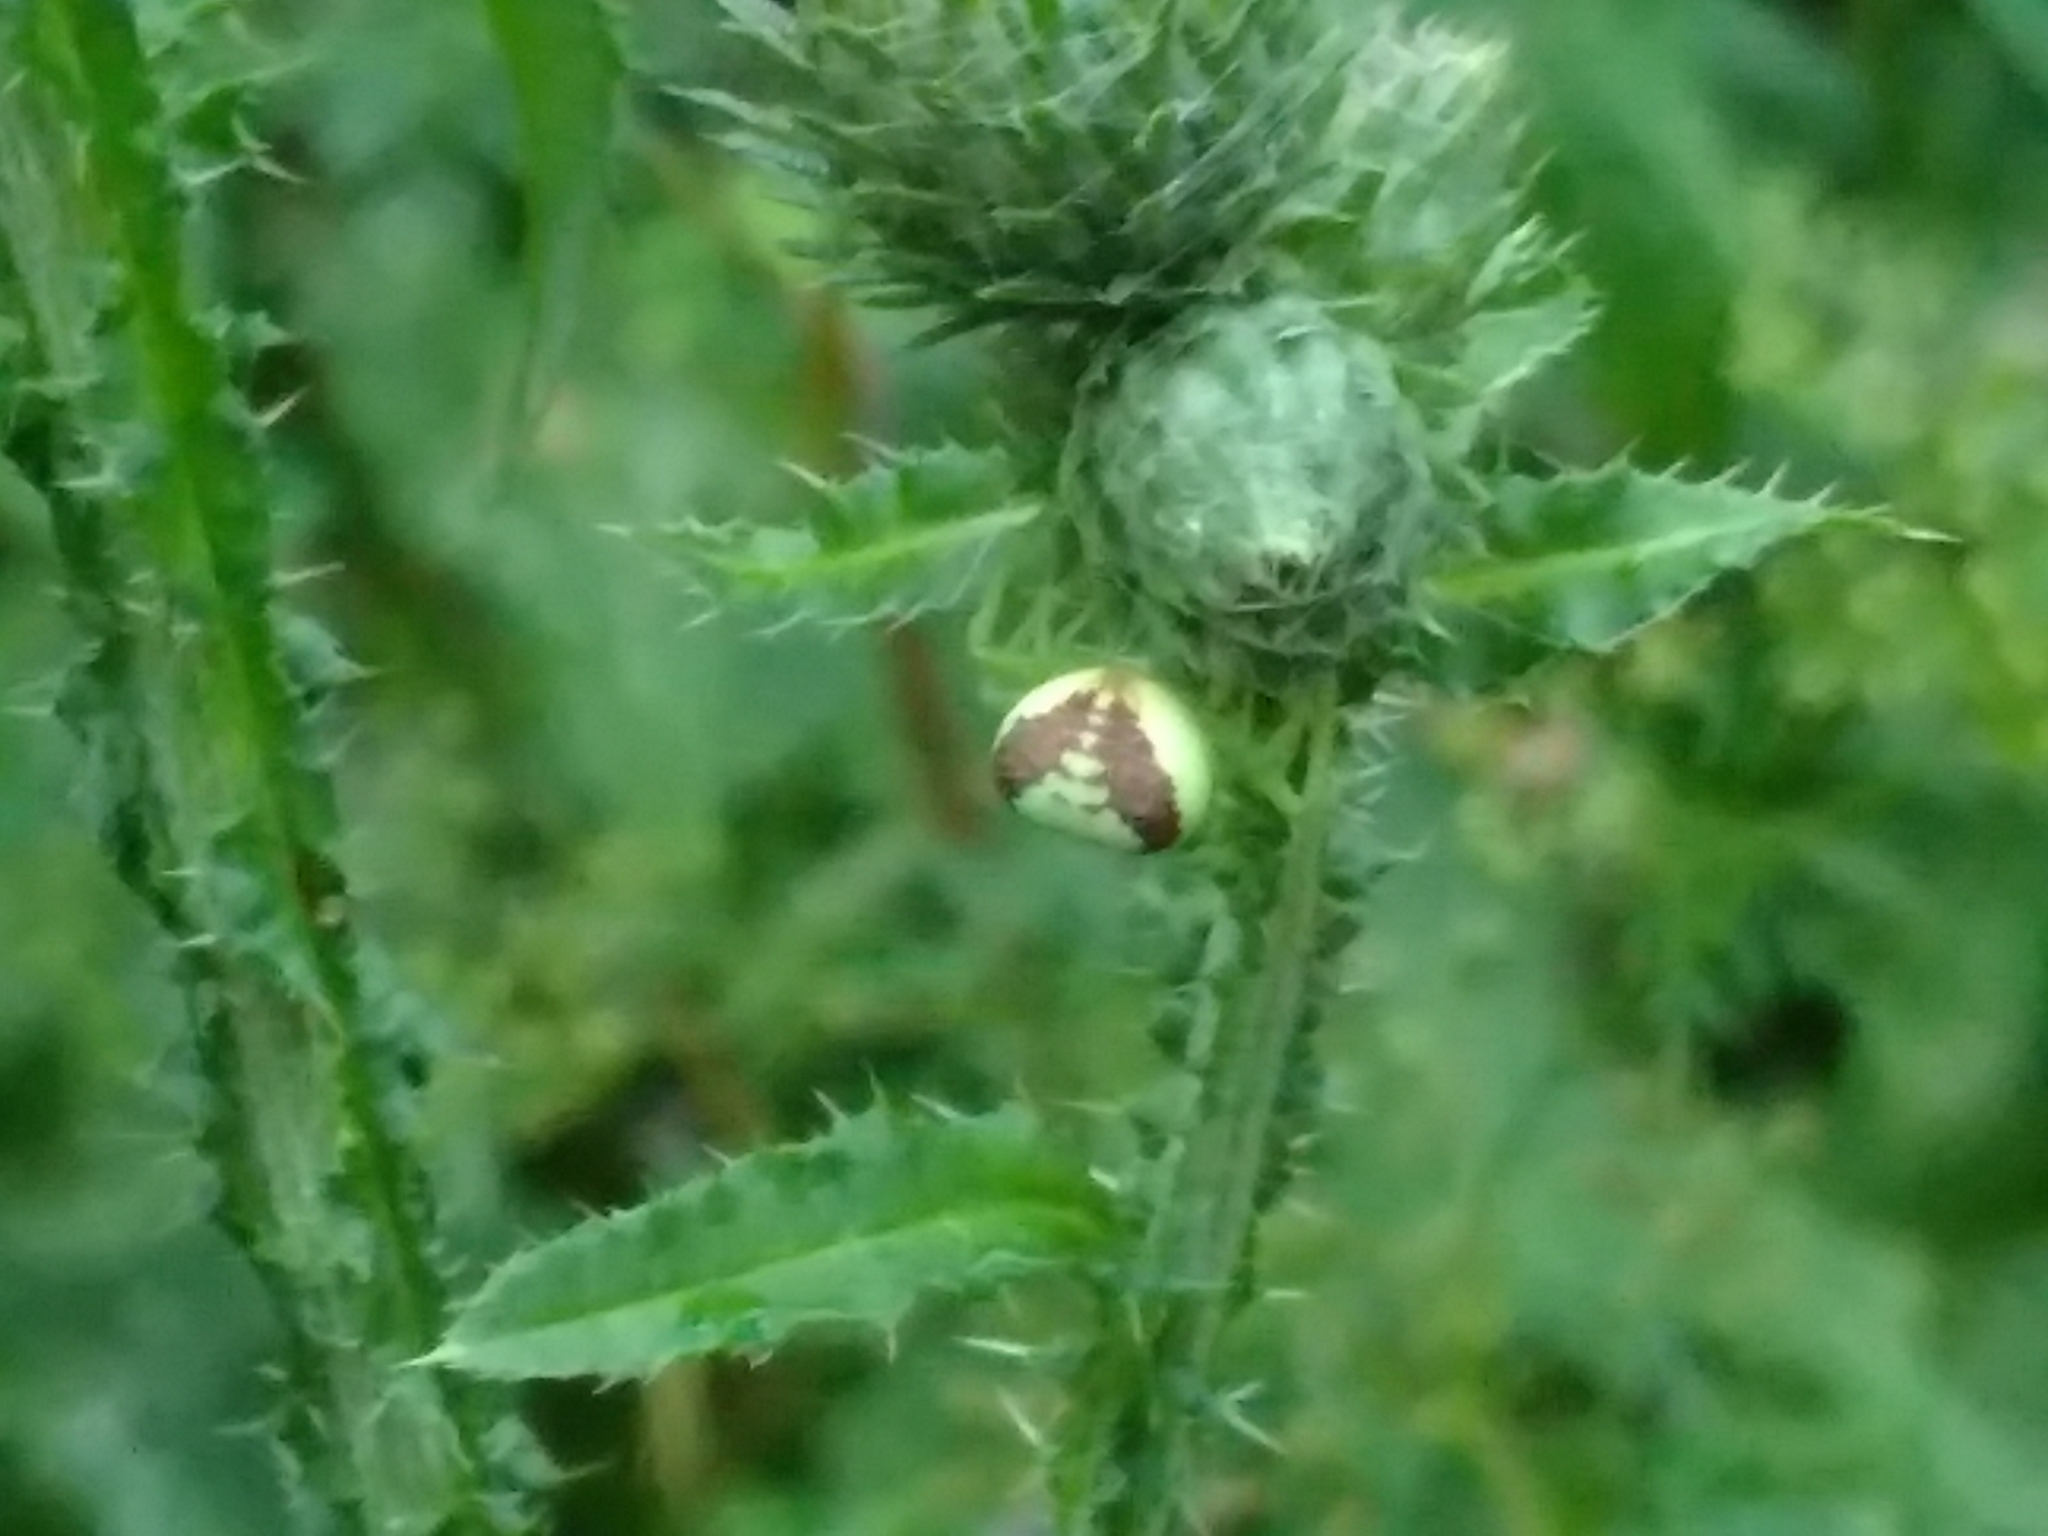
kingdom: Animalia
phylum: Arthropoda
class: Arachnida
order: Araneae
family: Thomisidae
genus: Ebrechtella
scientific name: Ebrechtella tricuspidata
